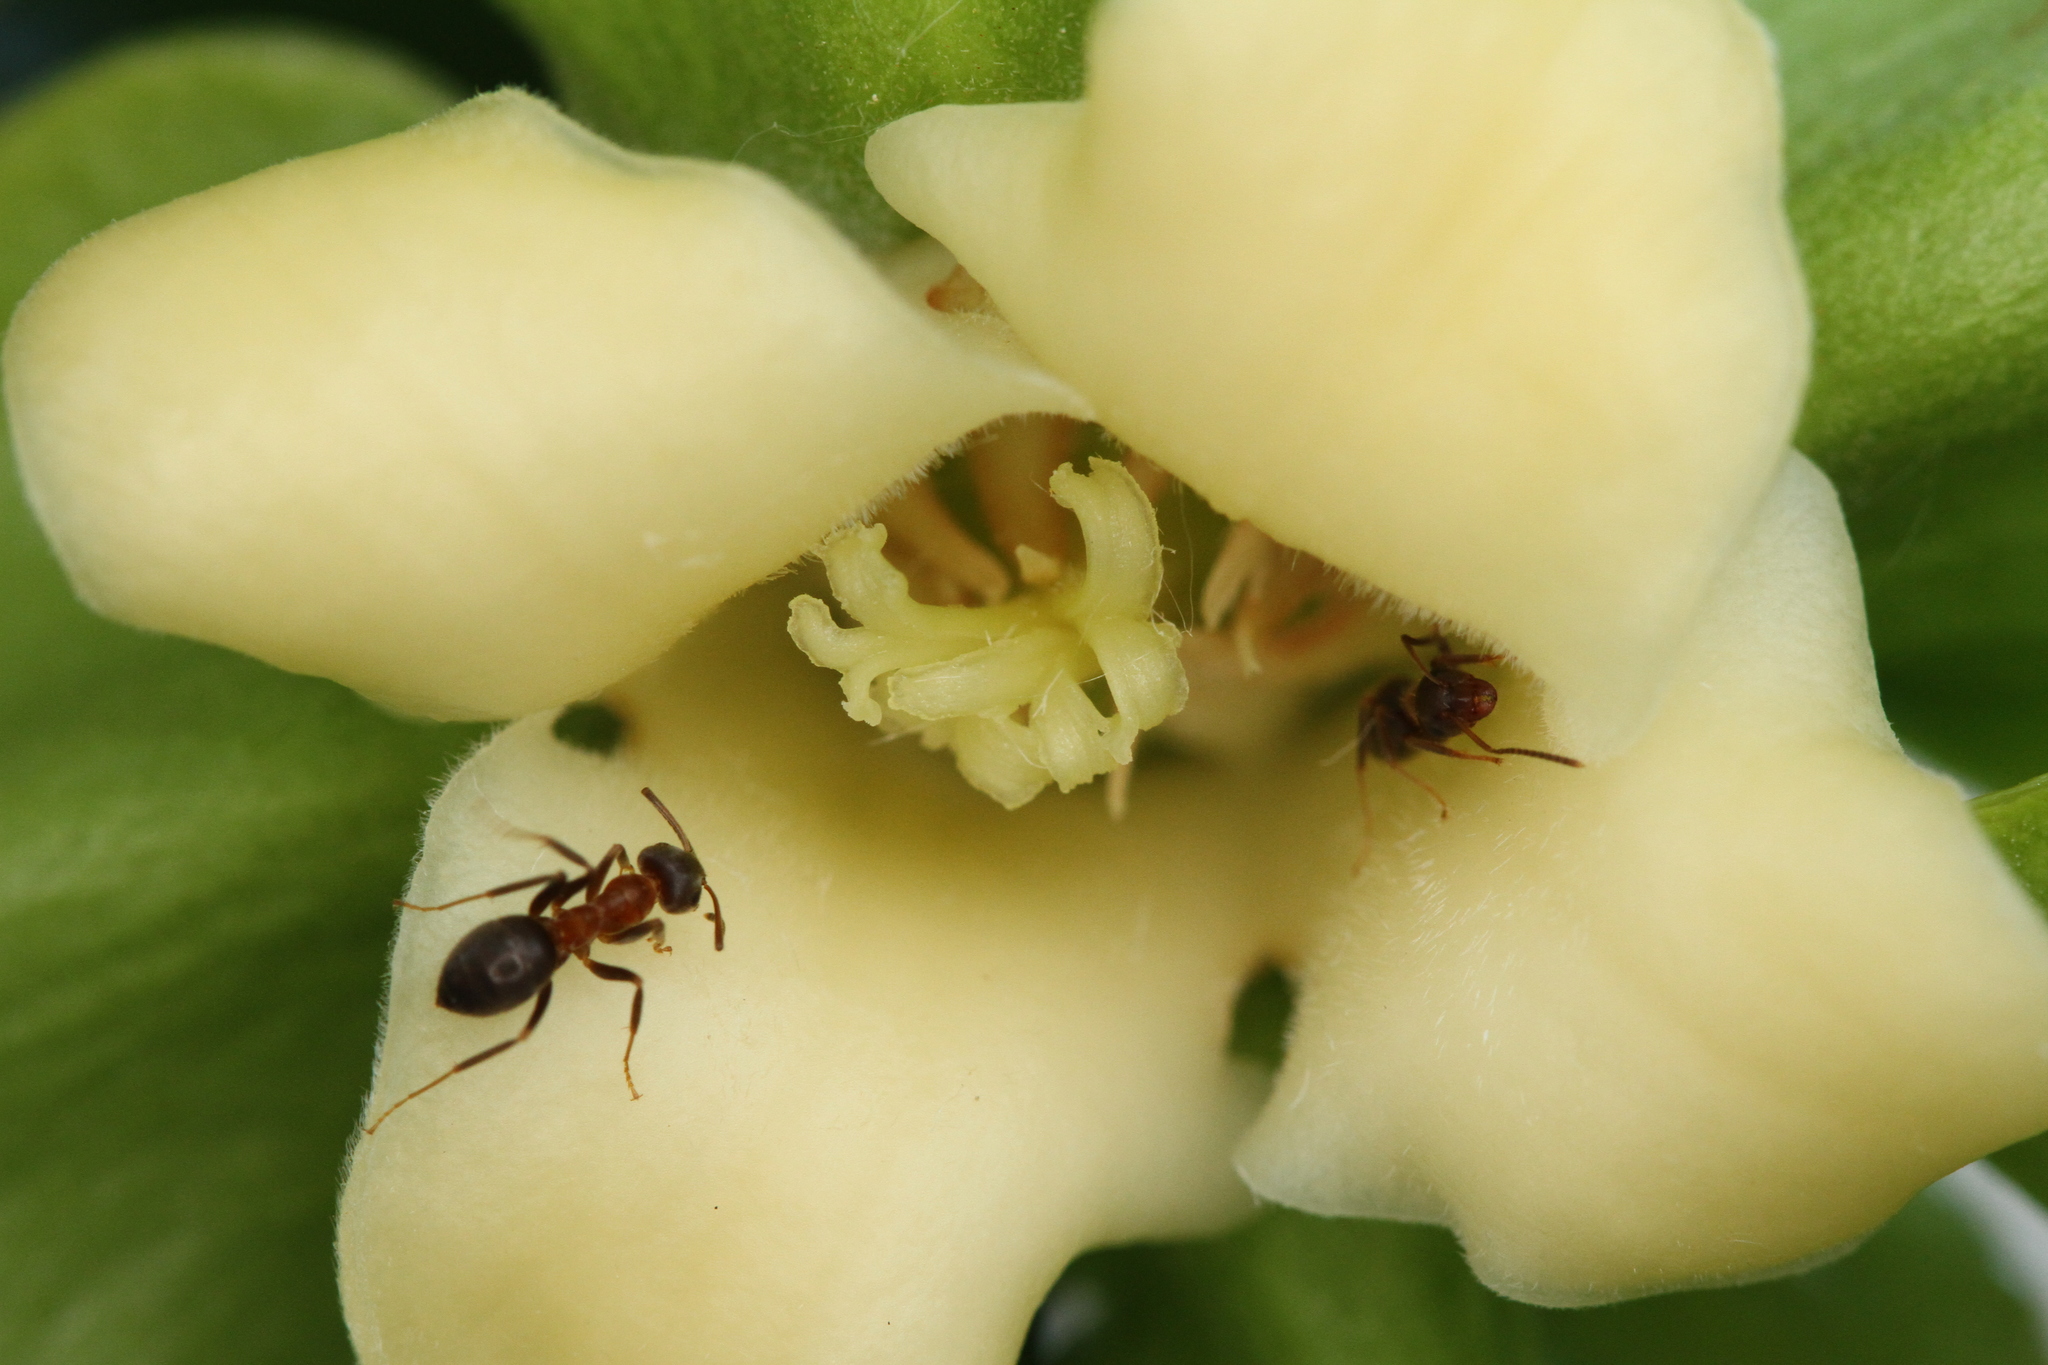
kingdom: Animalia
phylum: Arthropoda
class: Insecta
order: Hymenoptera
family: Formicidae
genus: Lasius
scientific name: Lasius emarginatus
